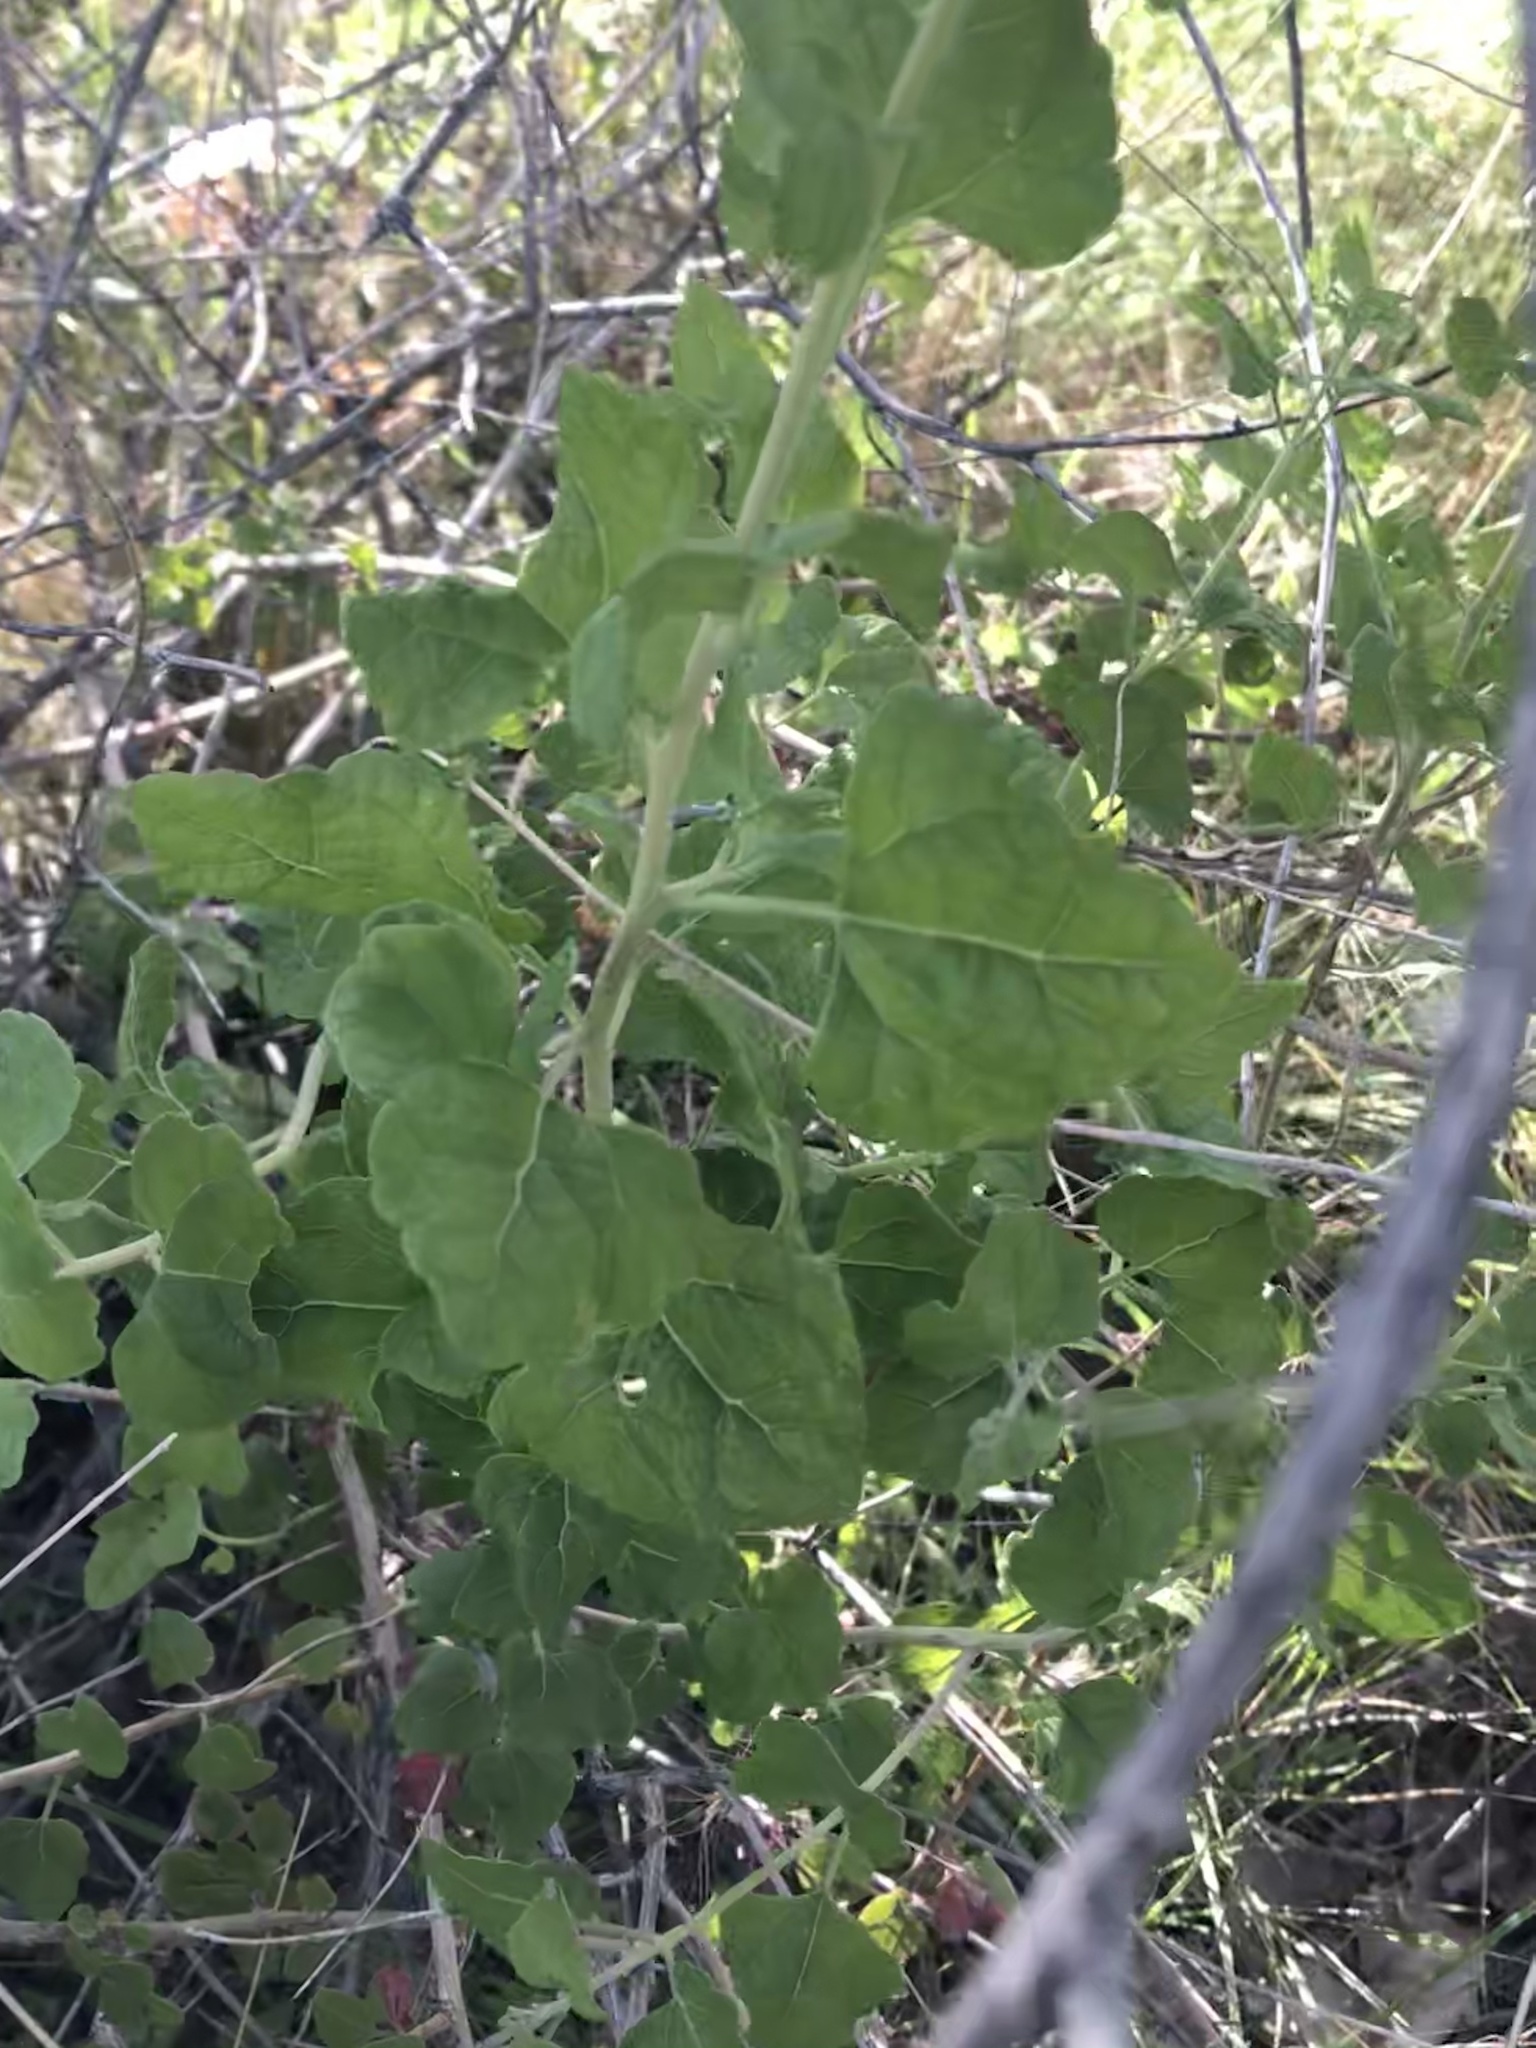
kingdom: Plantae
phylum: Tracheophyta
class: Magnoliopsida
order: Asterales
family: Asteraceae
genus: Brickellia
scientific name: Brickellia californica
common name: California brickellbush
